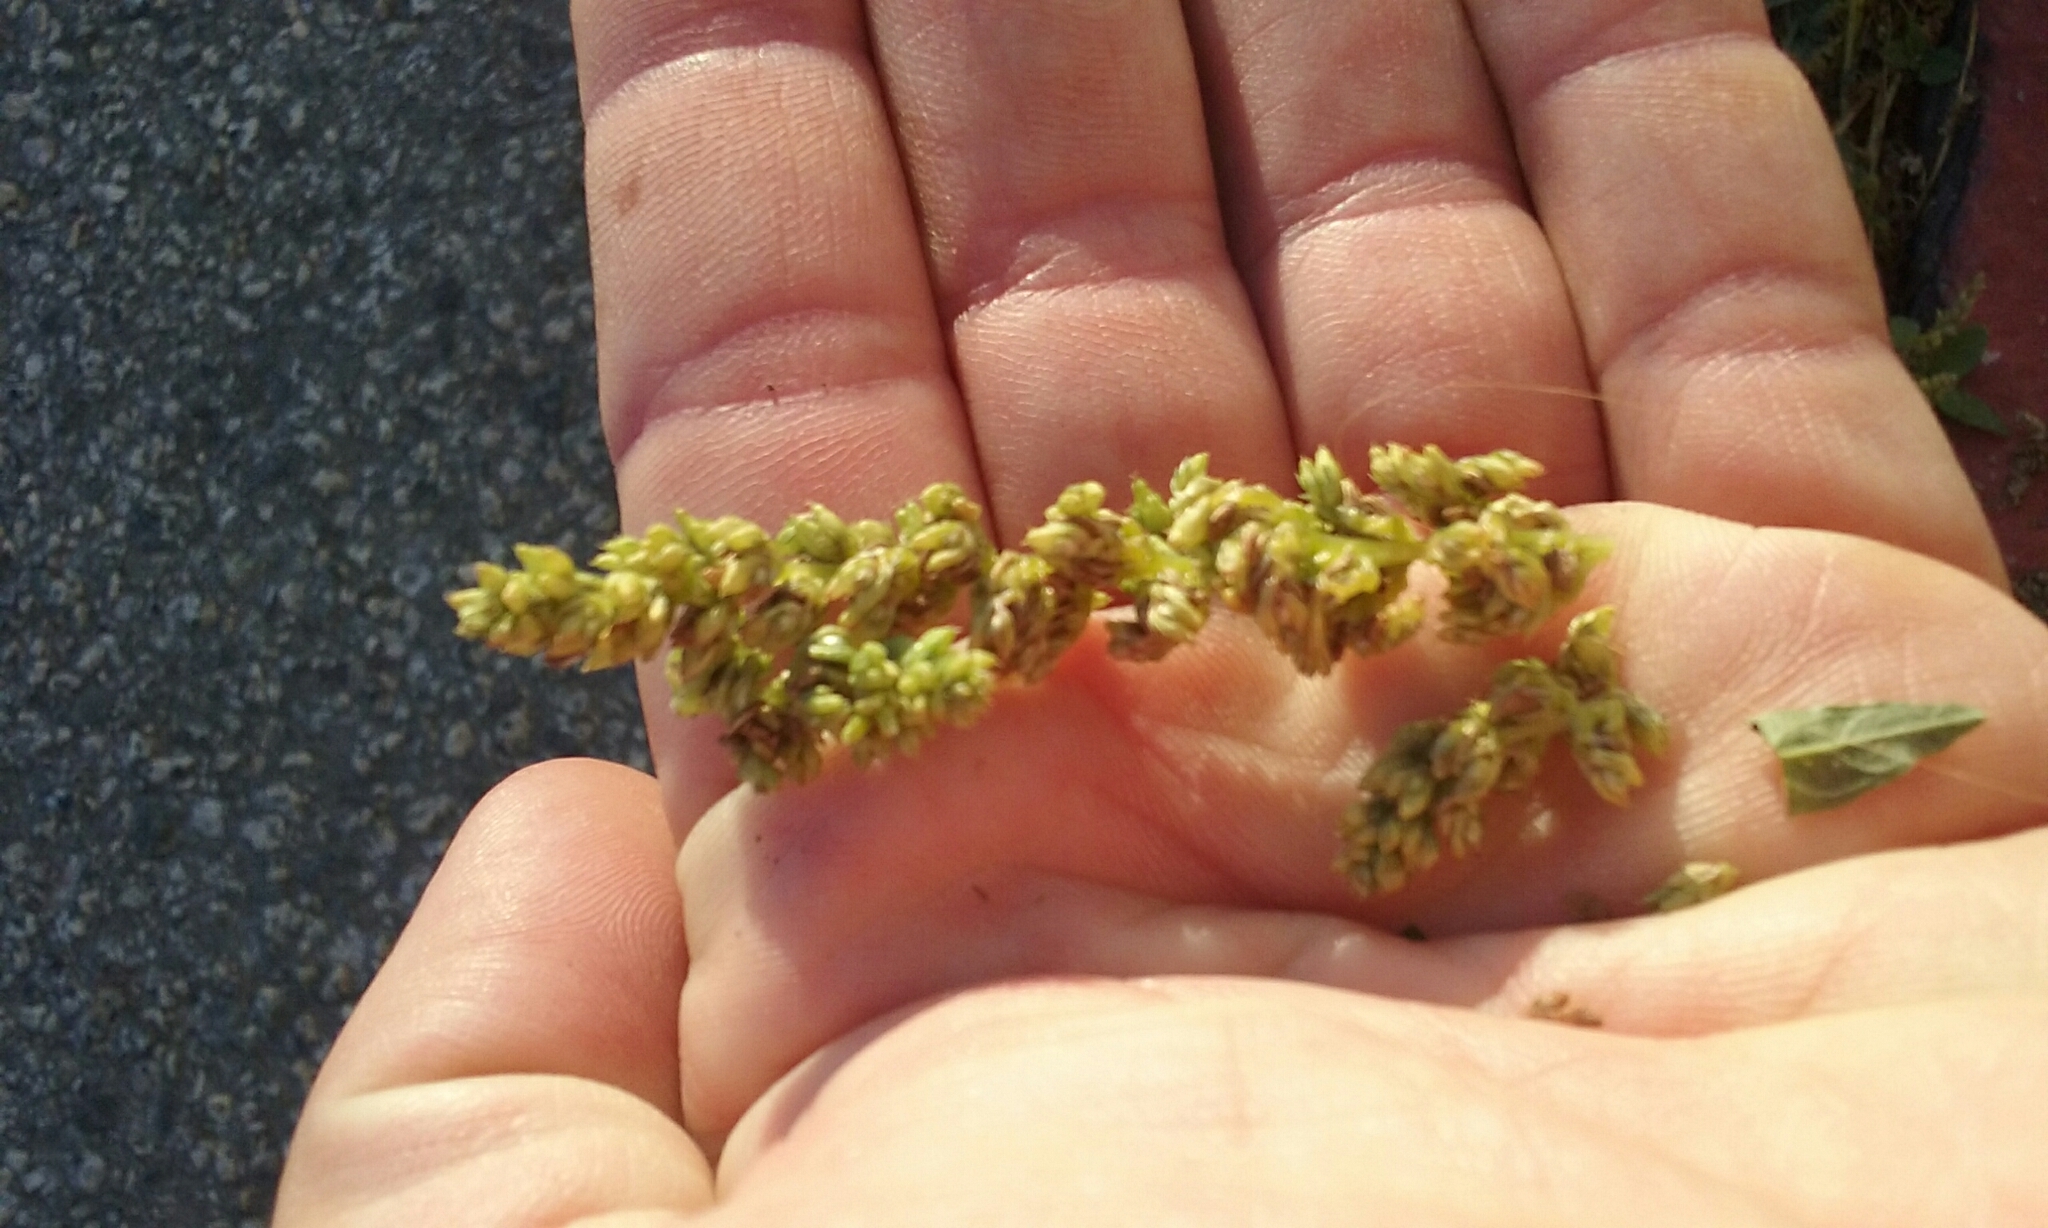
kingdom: Plantae
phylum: Tracheophyta
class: Magnoliopsida
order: Caryophyllales
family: Amaranthaceae
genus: Amaranthus
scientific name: Amaranthus deflexus
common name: Perennial pigweed
